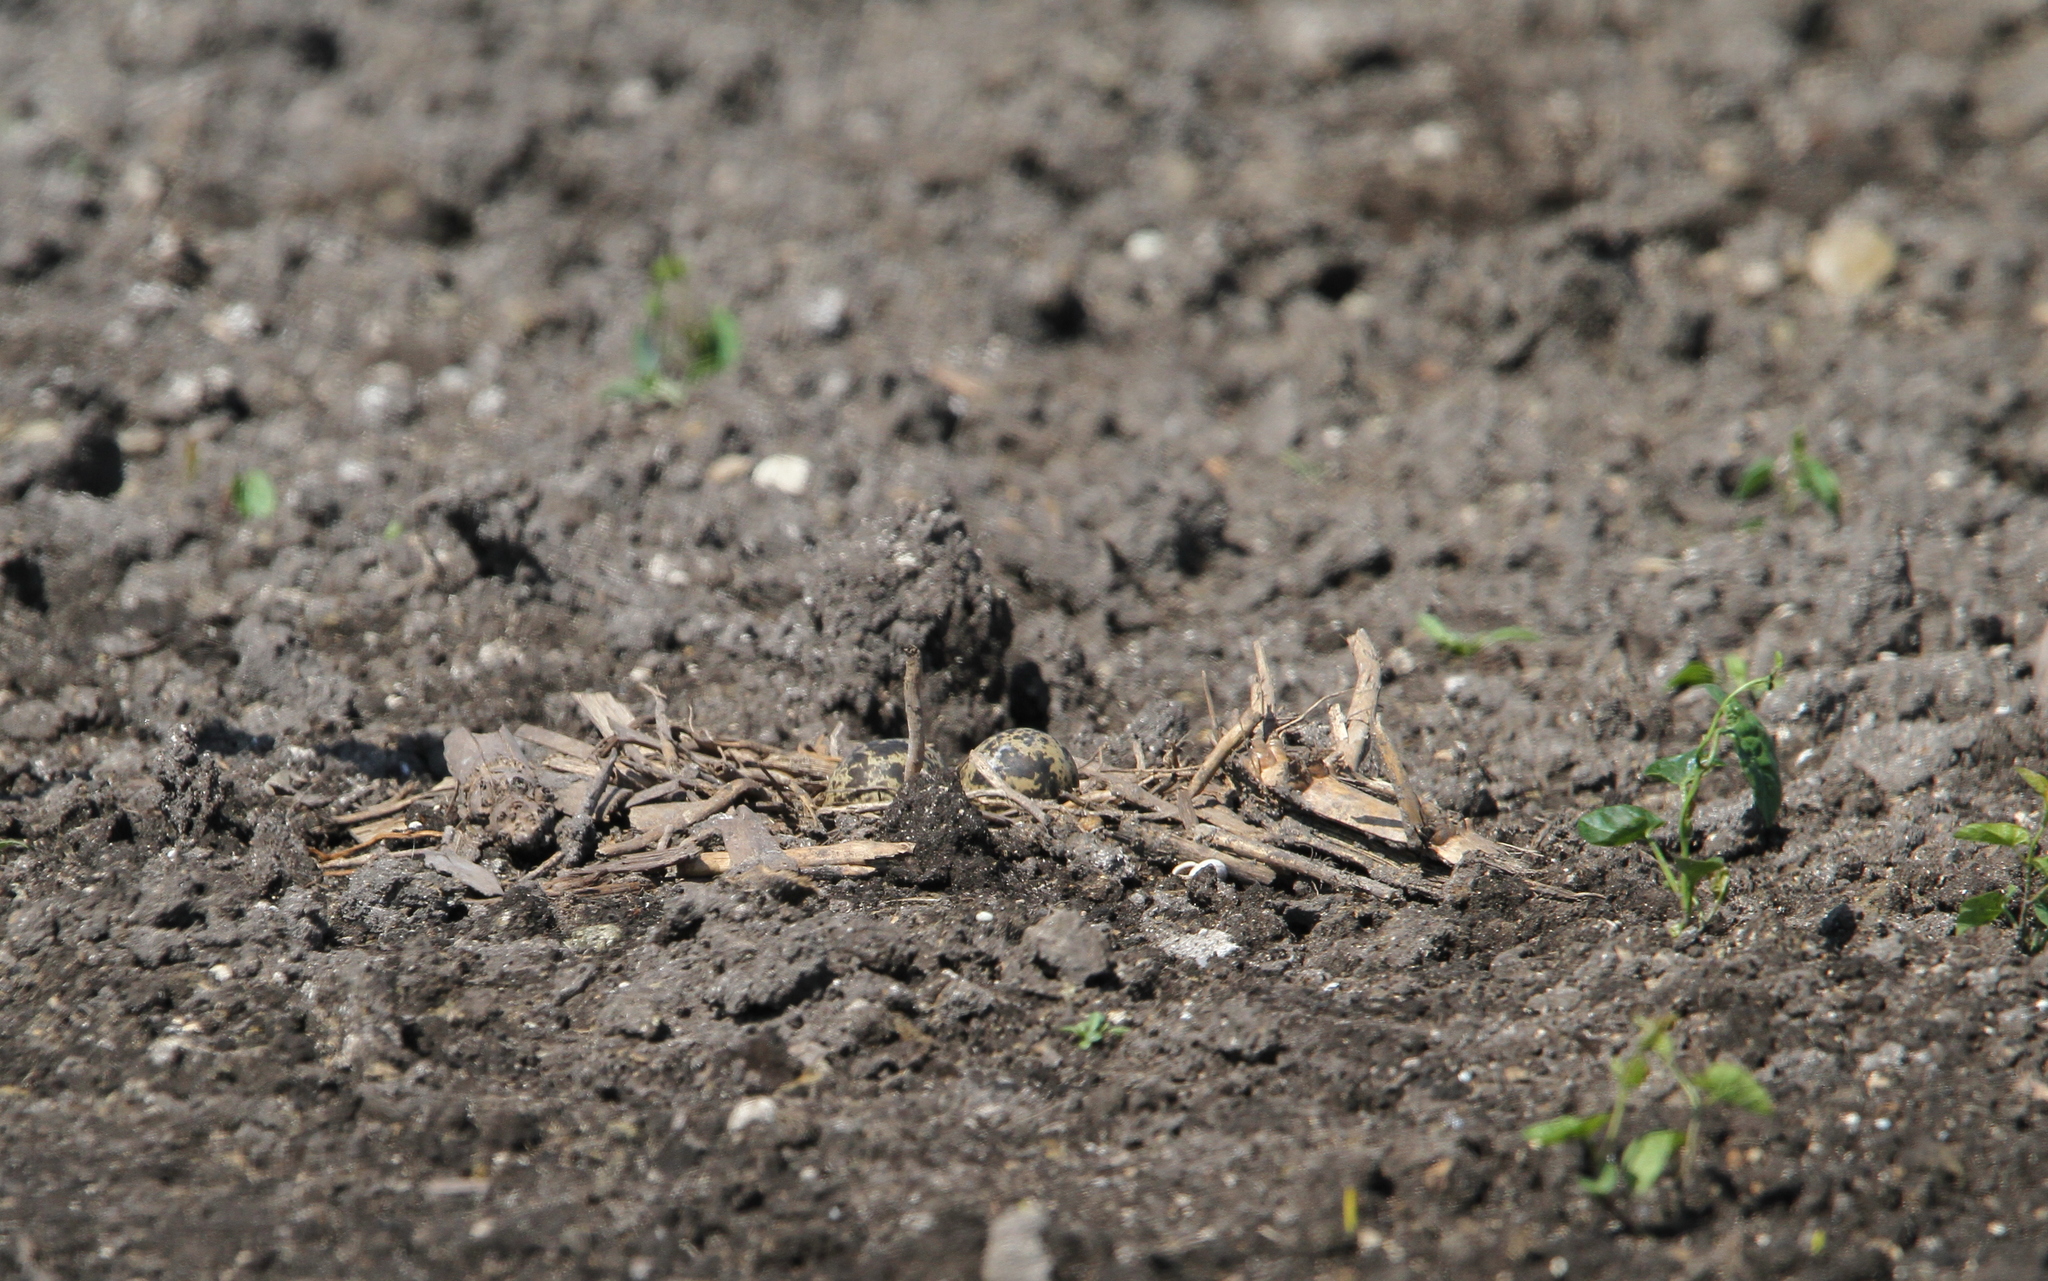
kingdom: Animalia
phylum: Chordata
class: Aves
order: Charadriiformes
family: Charadriidae
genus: Vanellus
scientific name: Vanellus vanellus
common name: Northern lapwing
